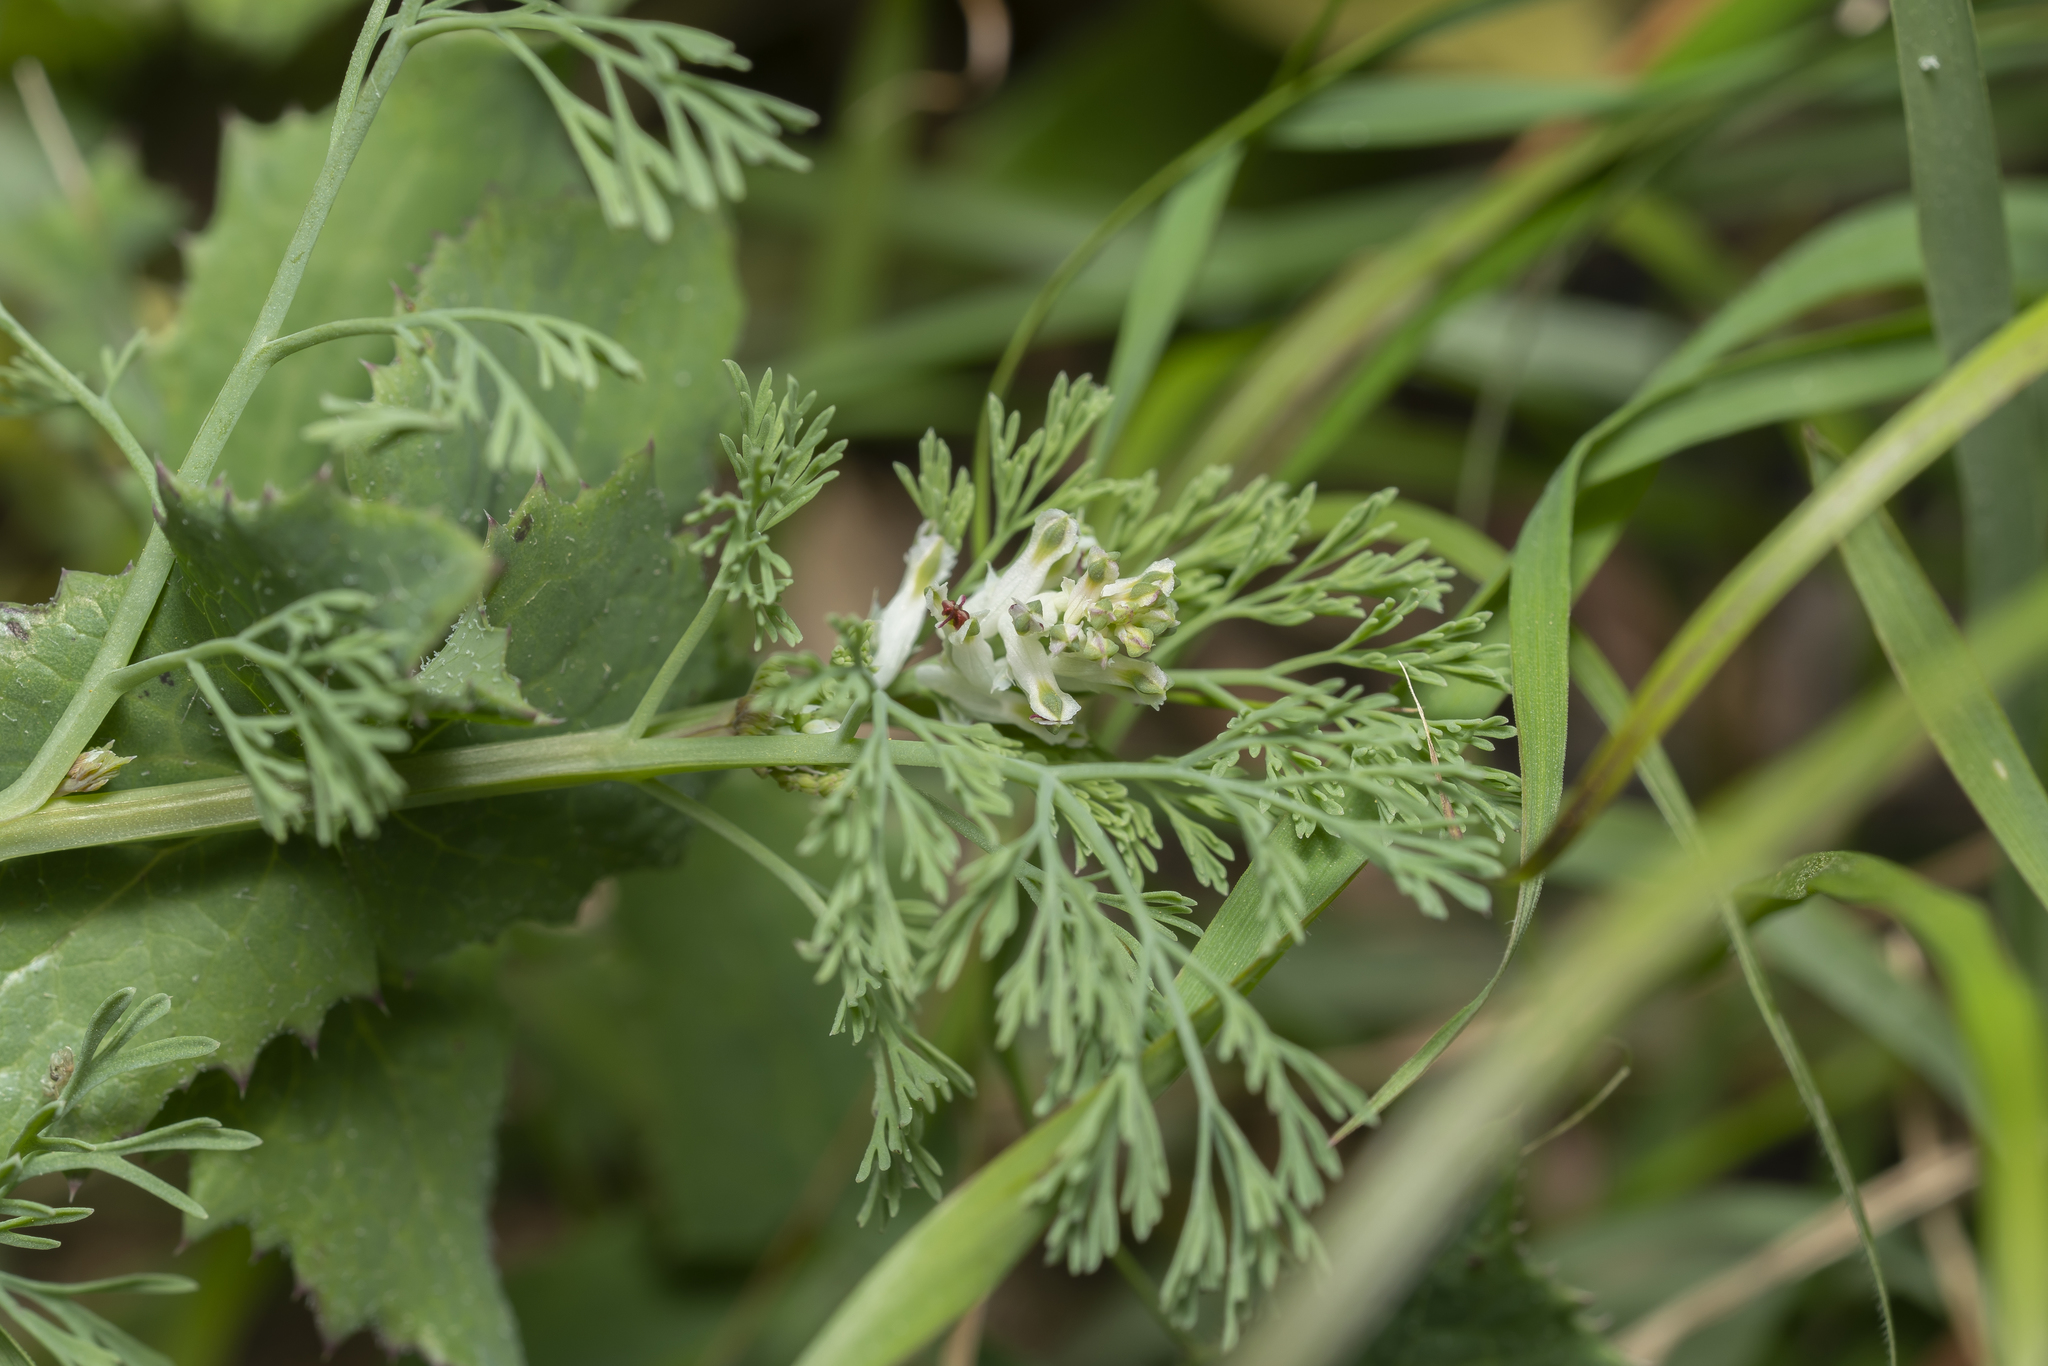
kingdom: Plantae
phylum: Tracheophyta
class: Magnoliopsida
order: Ranunculales
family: Papaveraceae
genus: Fumaria
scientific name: Fumaria parviflora
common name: Fine-leaved fumitory
